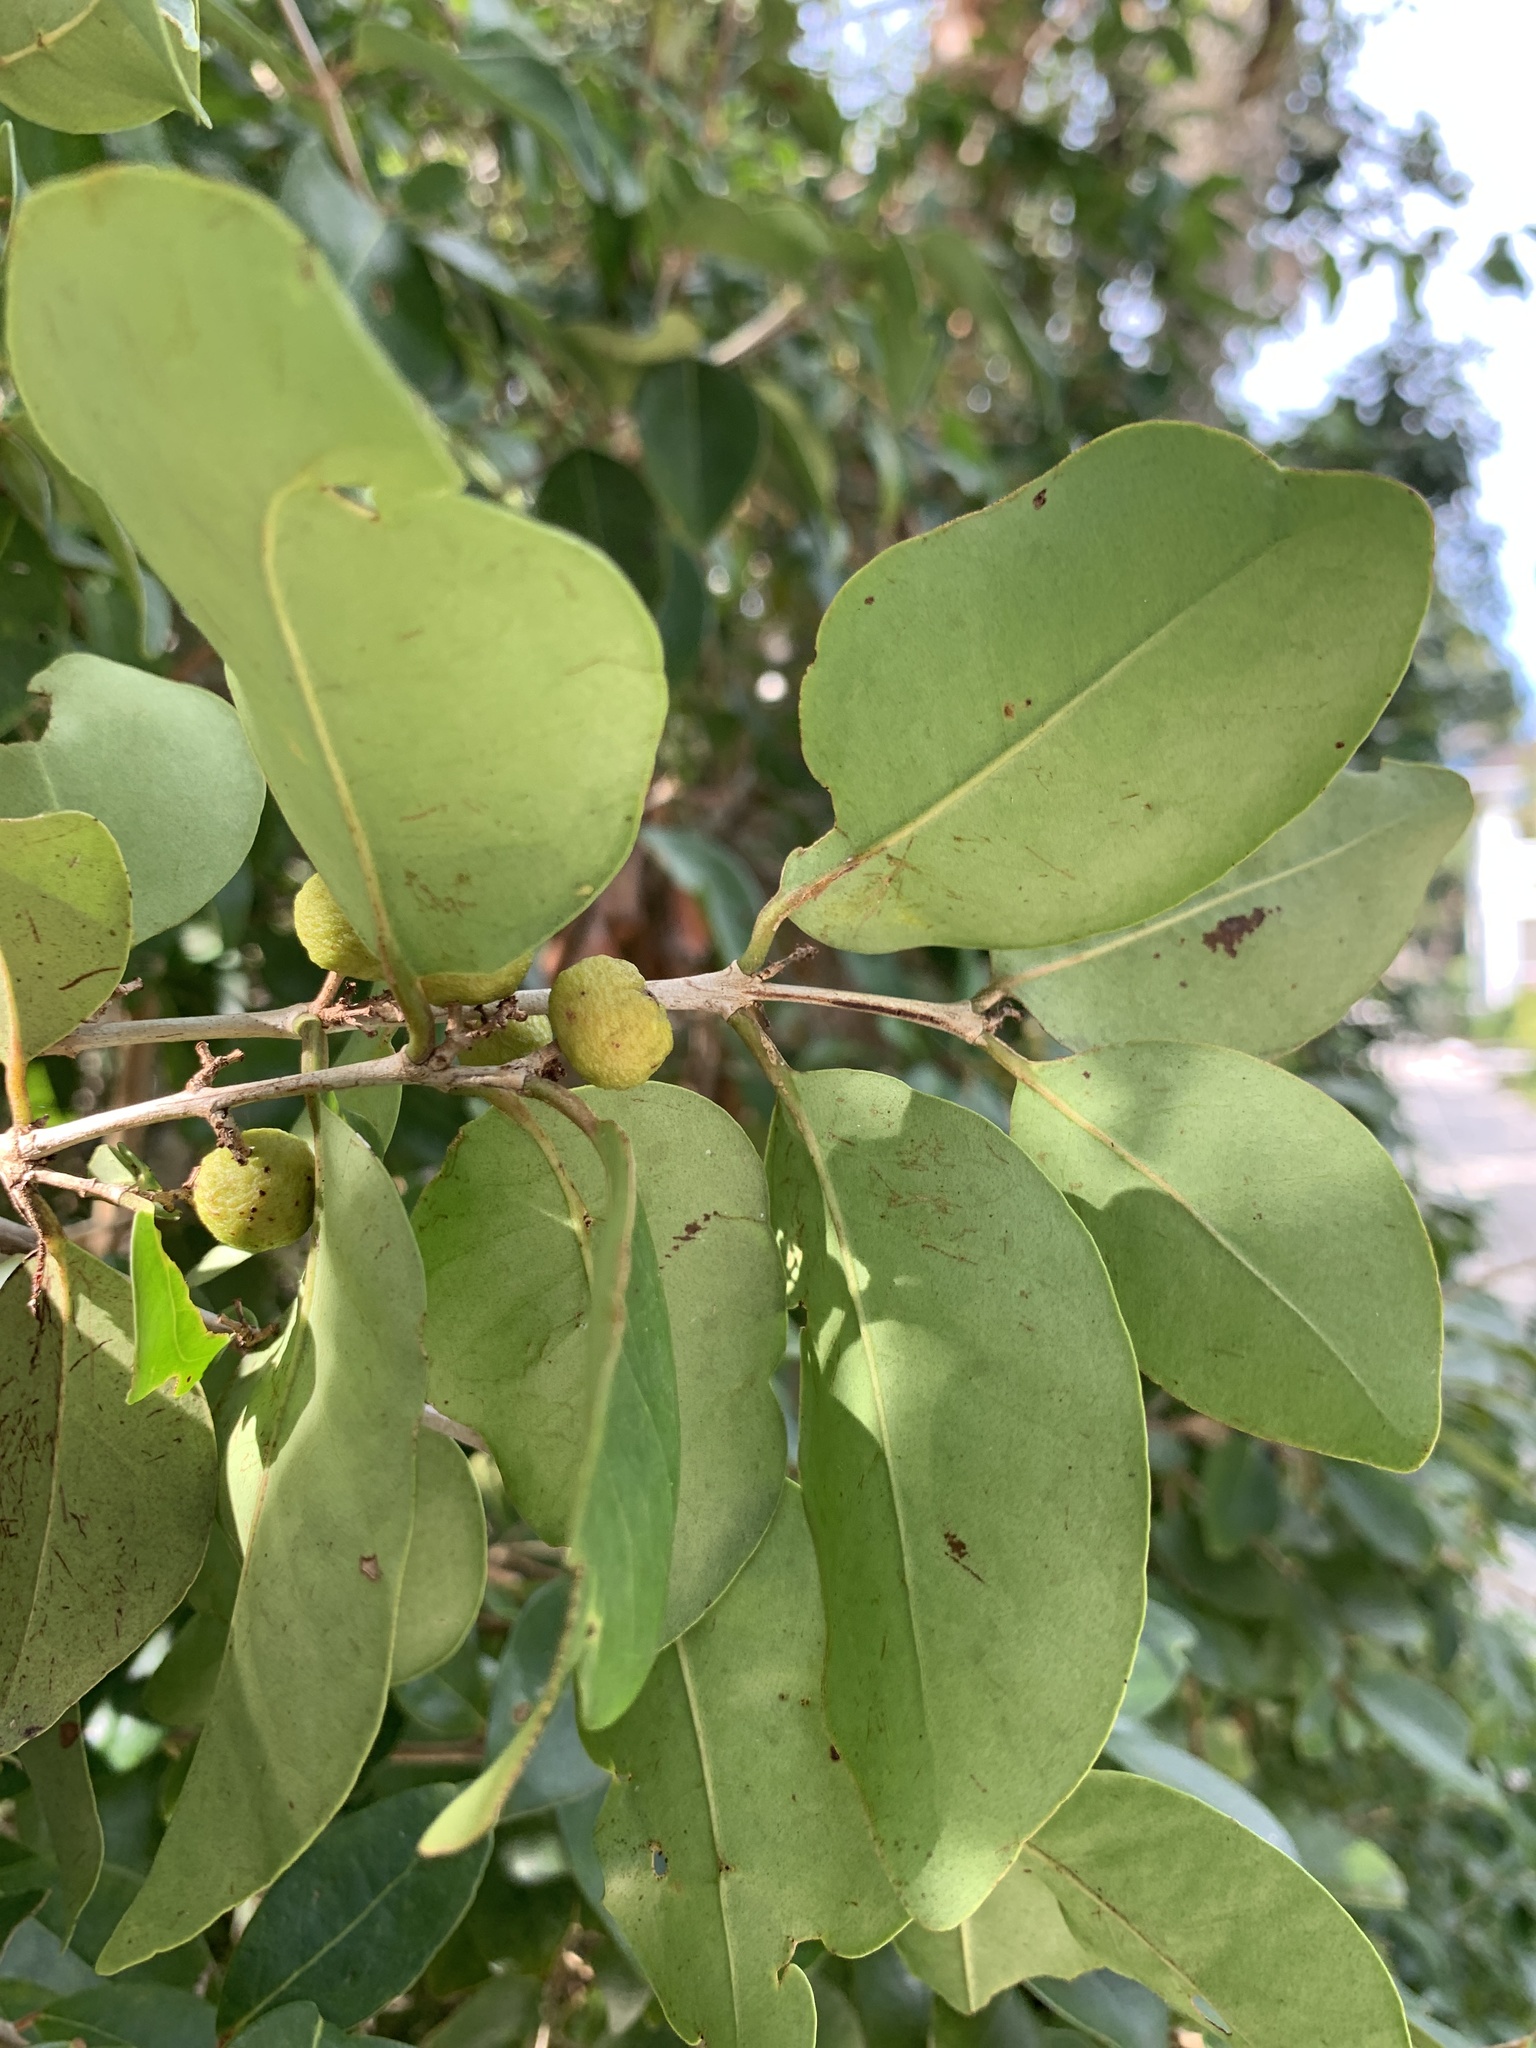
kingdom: Plantae
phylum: Tracheophyta
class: Magnoliopsida
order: Myrtales
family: Myrtaceae
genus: Eugenia
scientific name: Eugenia axillaris
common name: Choaky berry
